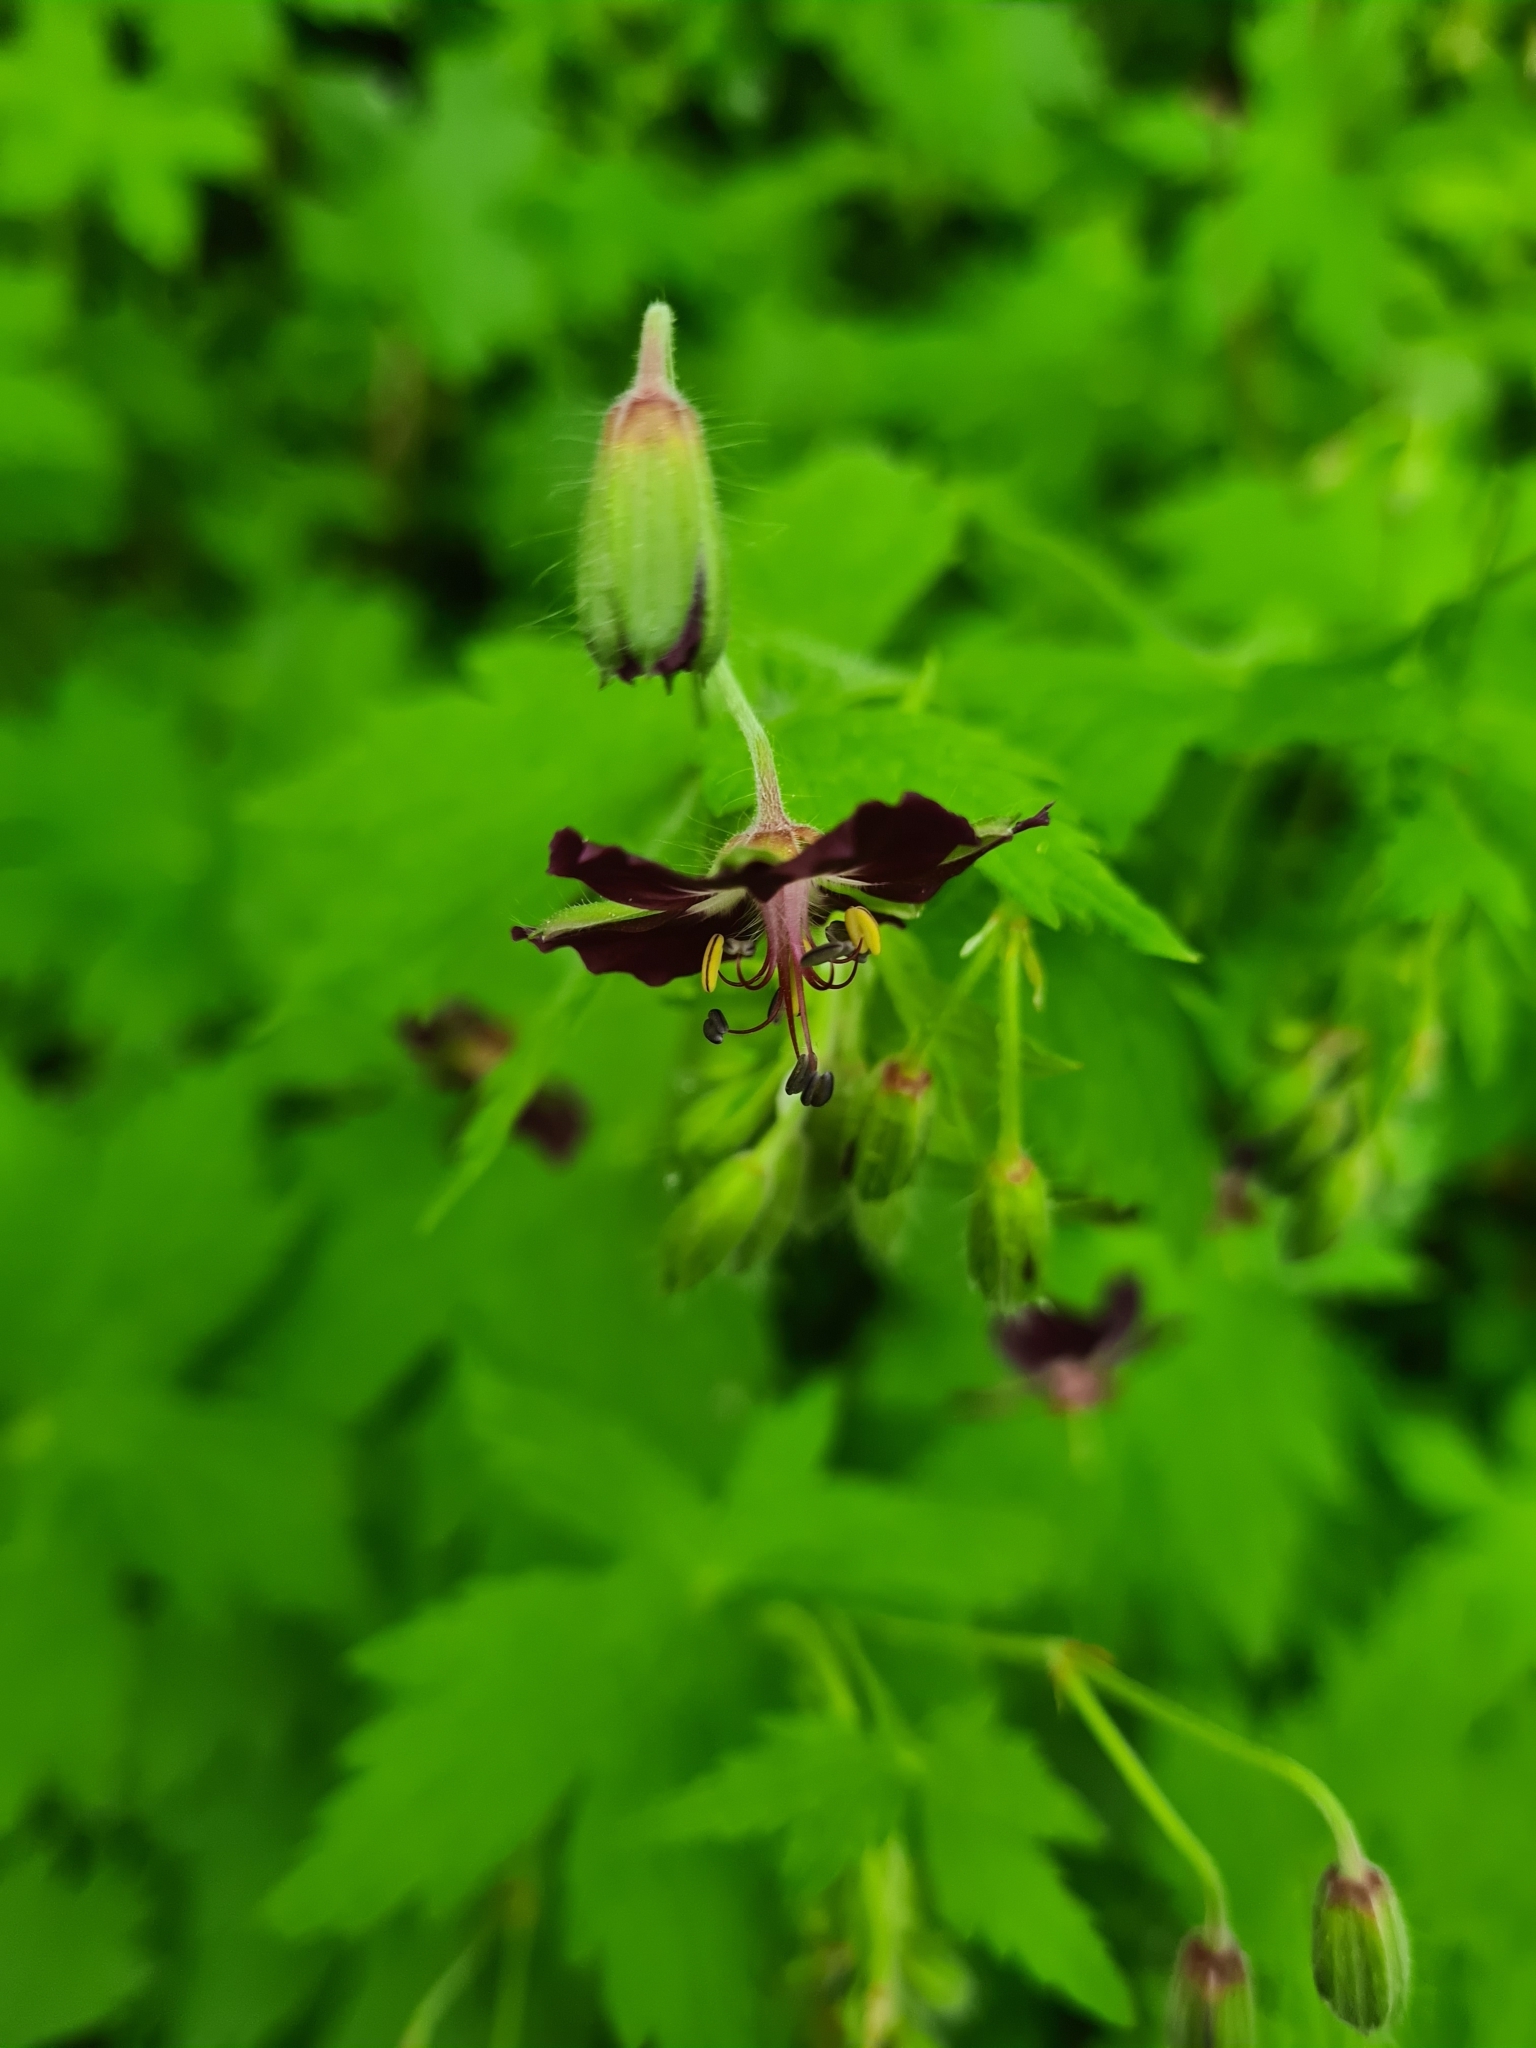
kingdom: Plantae
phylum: Tracheophyta
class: Magnoliopsida
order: Geraniales
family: Geraniaceae
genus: Geranium
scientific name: Geranium phaeum
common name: Dusky crane's-bill
